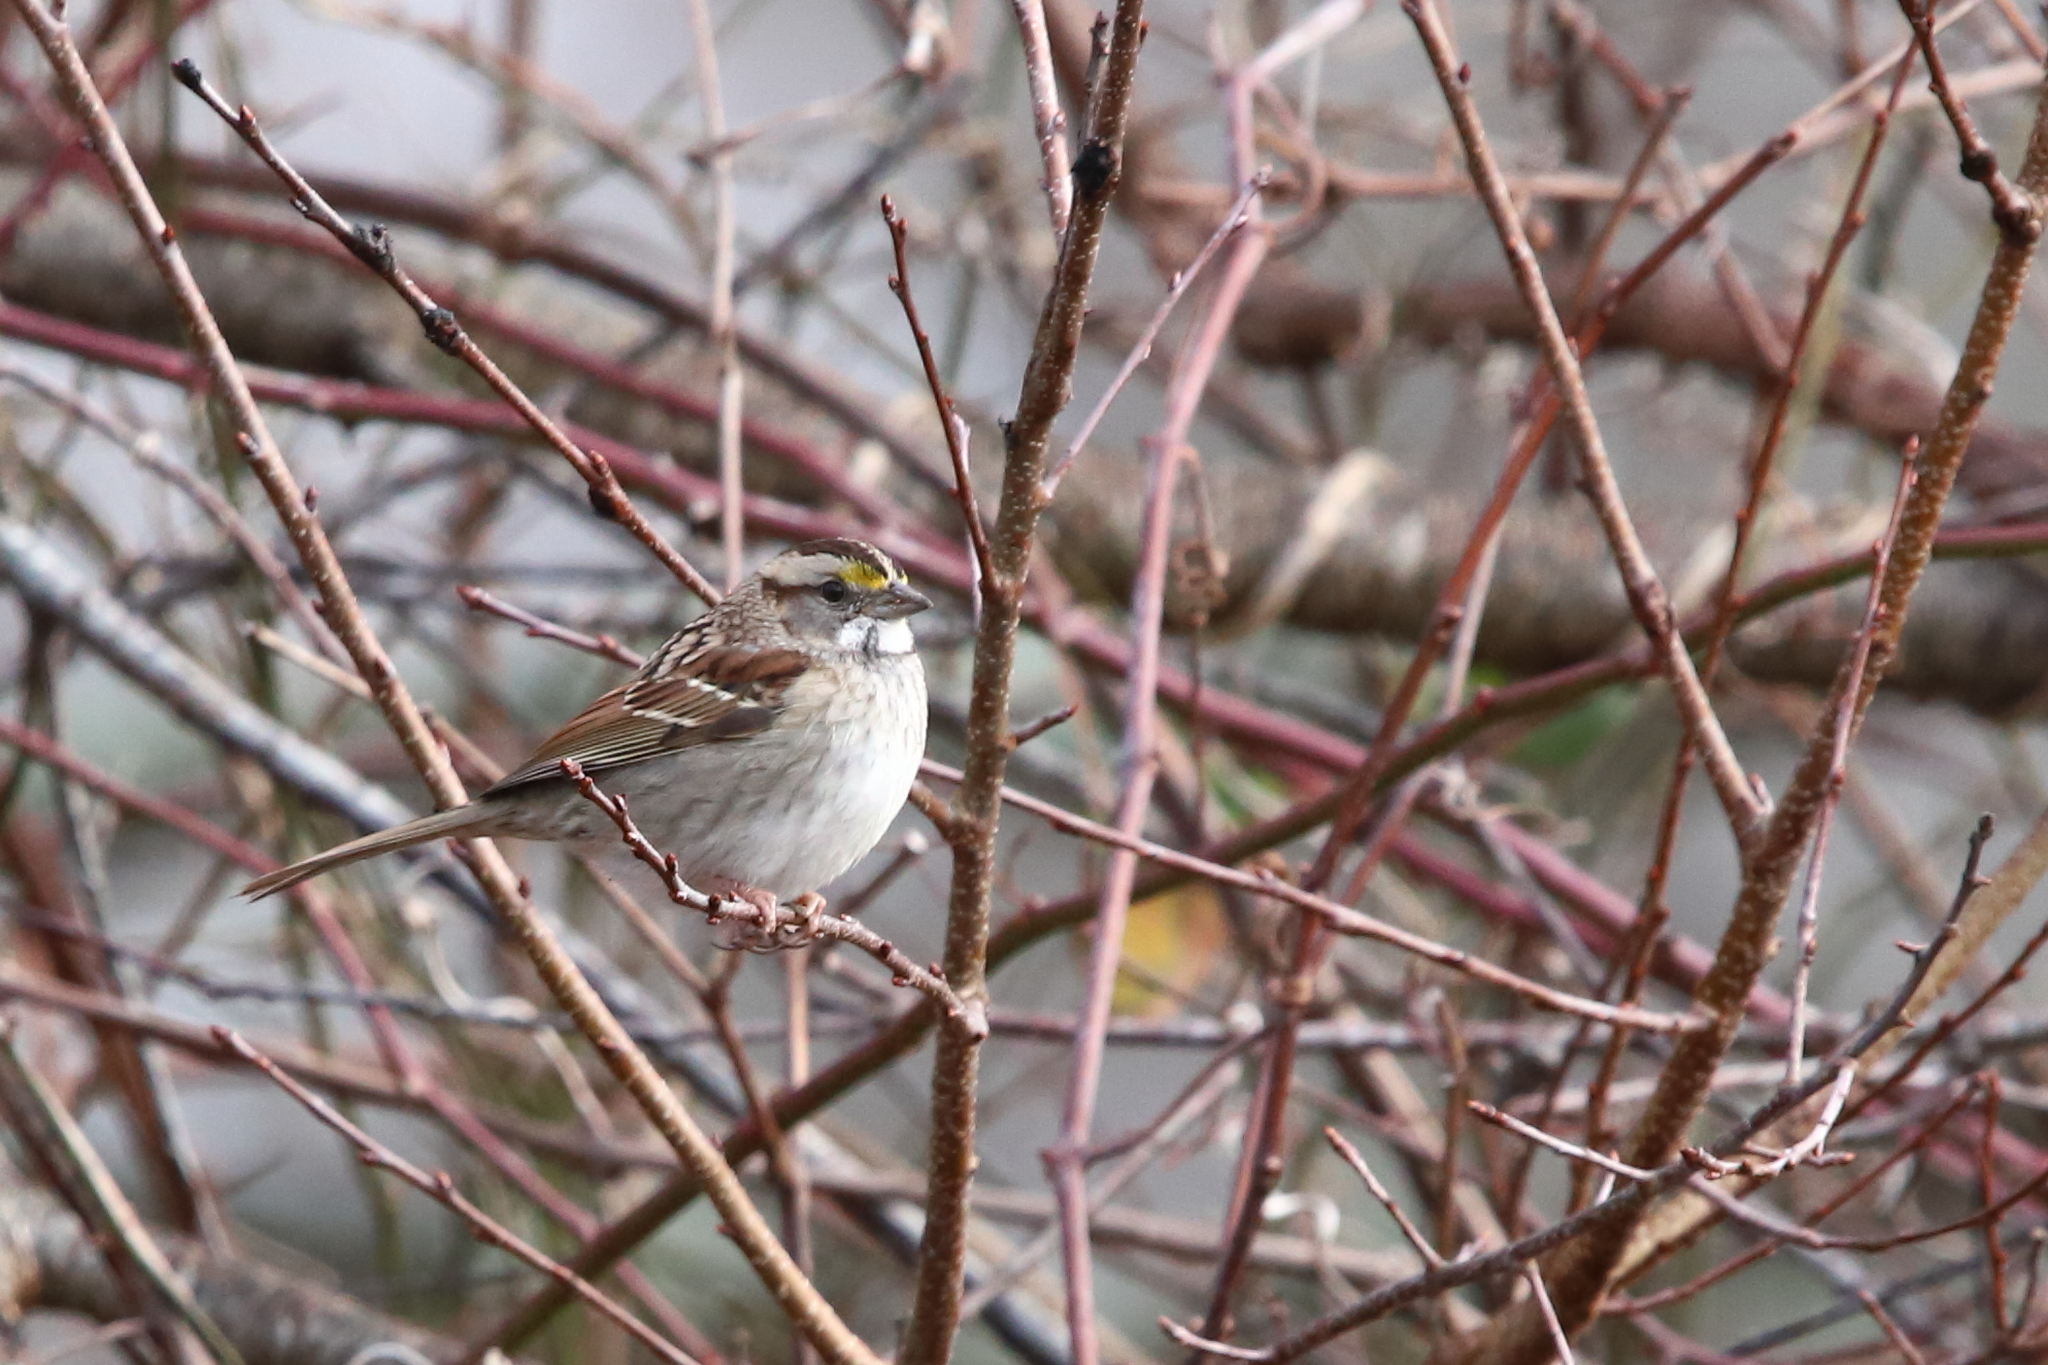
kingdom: Animalia
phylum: Chordata
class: Aves
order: Passeriformes
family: Passerellidae
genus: Zonotrichia
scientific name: Zonotrichia albicollis
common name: White-throated sparrow
